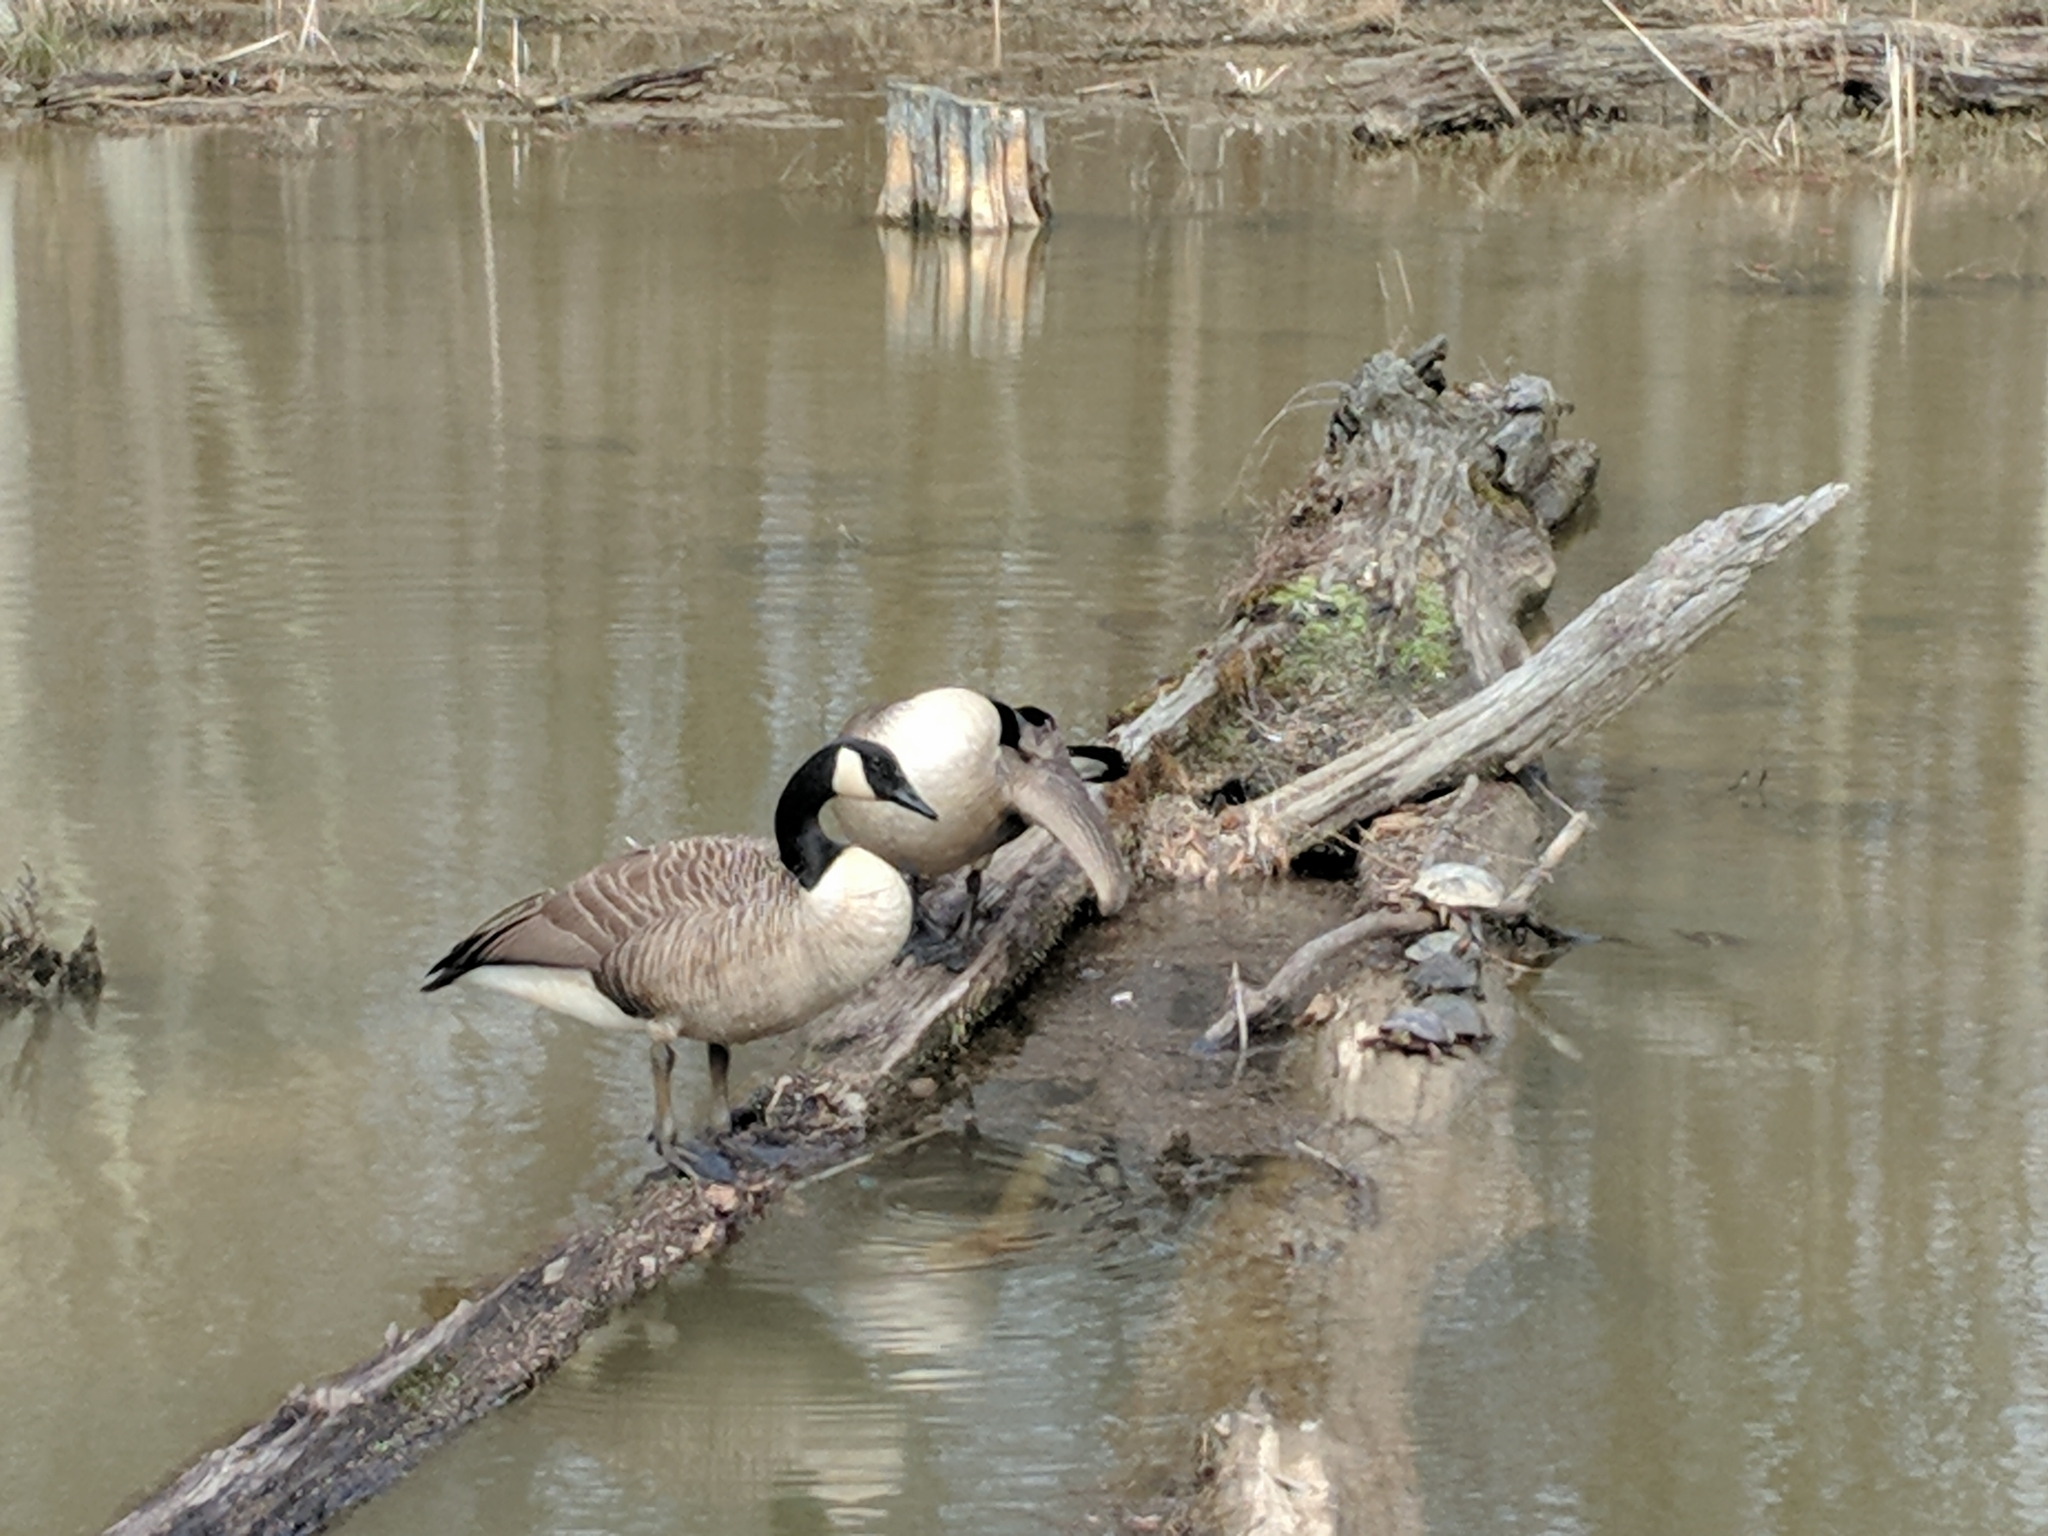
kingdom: Animalia
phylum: Chordata
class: Aves
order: Anseriformes
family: Anatidae
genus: Branta
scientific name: Branta canadensis
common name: Canada goose
